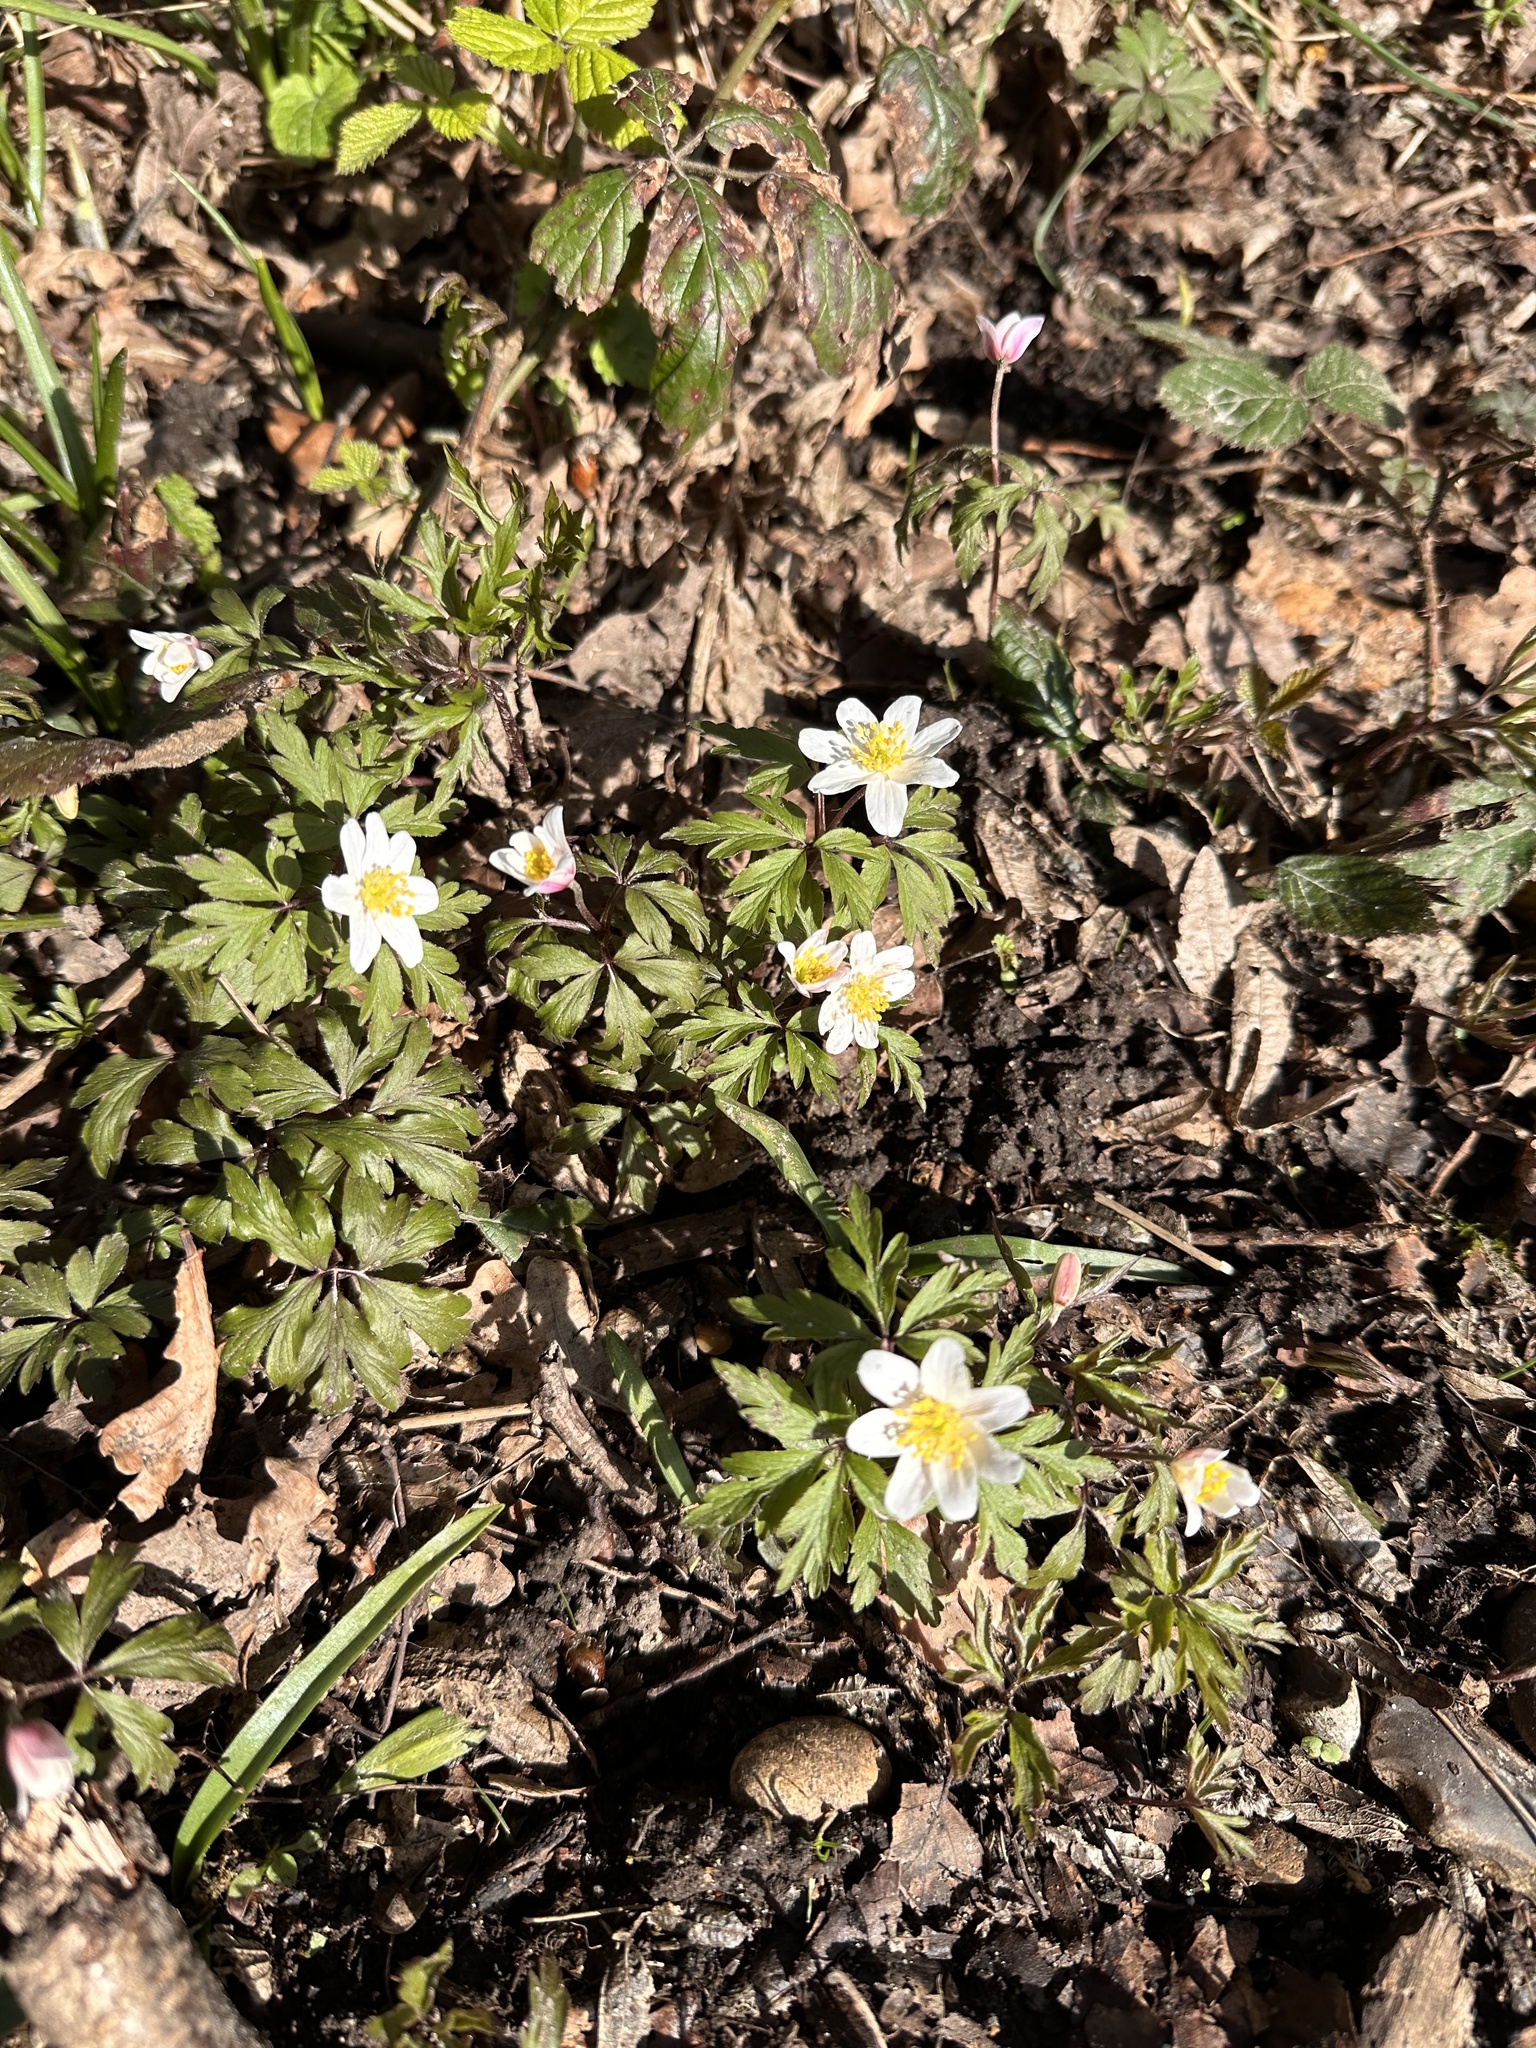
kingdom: Plantae
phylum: Tracheophyta
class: Magnoliopsida
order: Ranunculales
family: Ranunculaceae
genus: Anemone
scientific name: Anemone nemorosa
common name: Wood anemone
